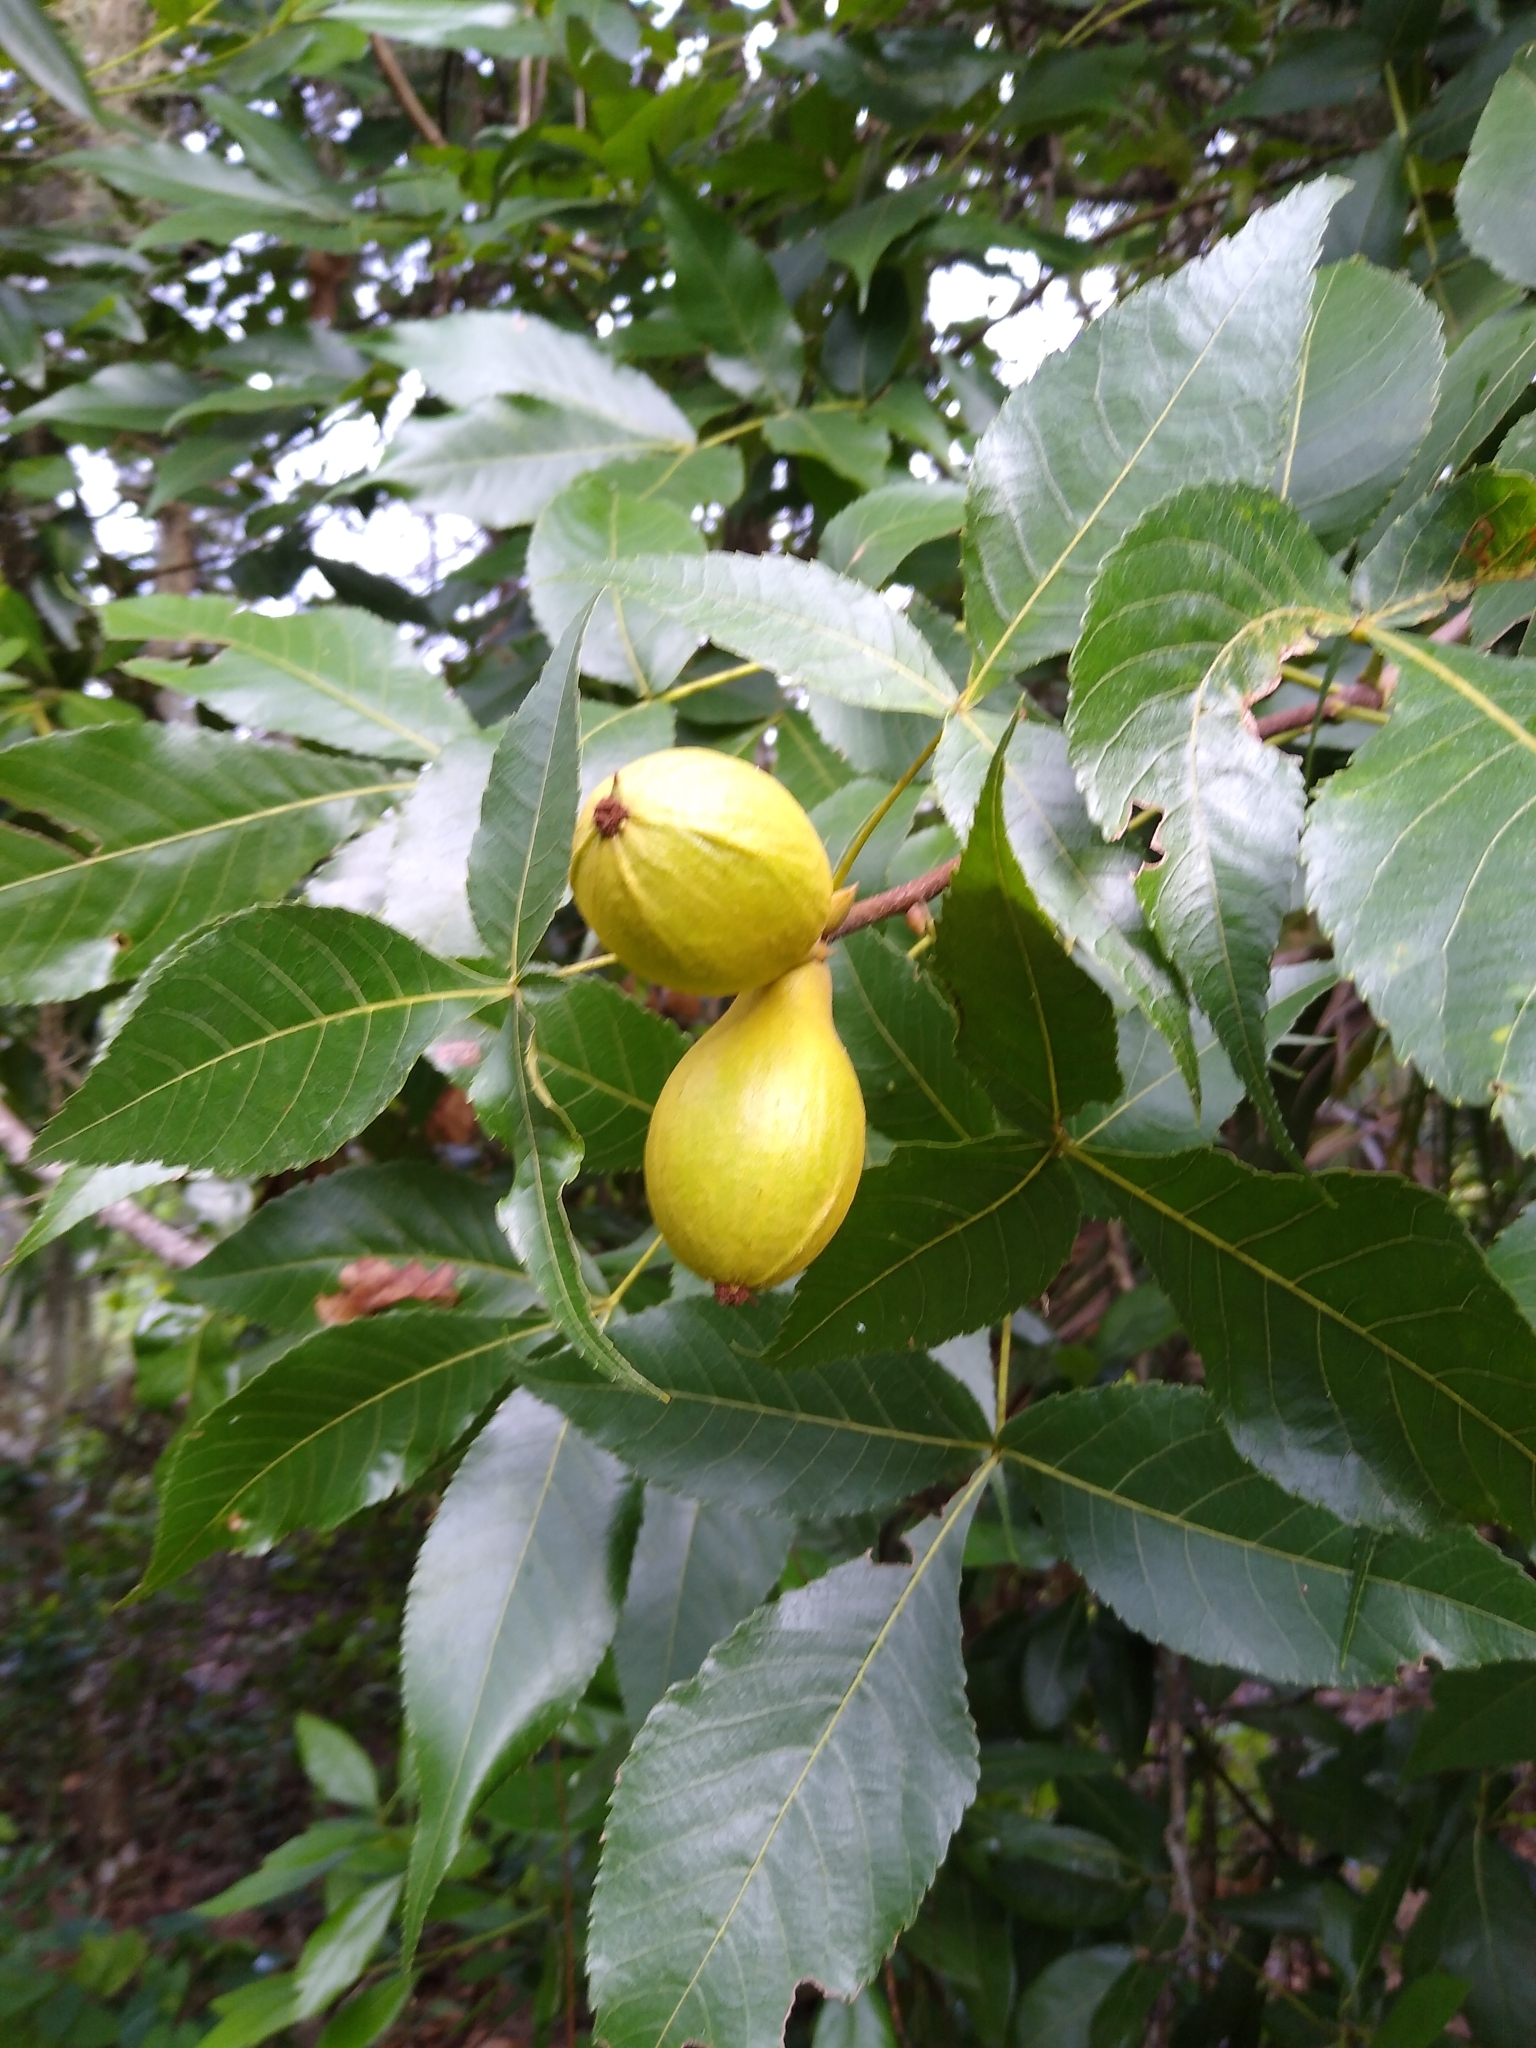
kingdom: Plantae
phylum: Tracheophyta
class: Magnoliopsida
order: Fagales
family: Juglandaceae
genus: Carya
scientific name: Carya glabra
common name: Pignut hickory
